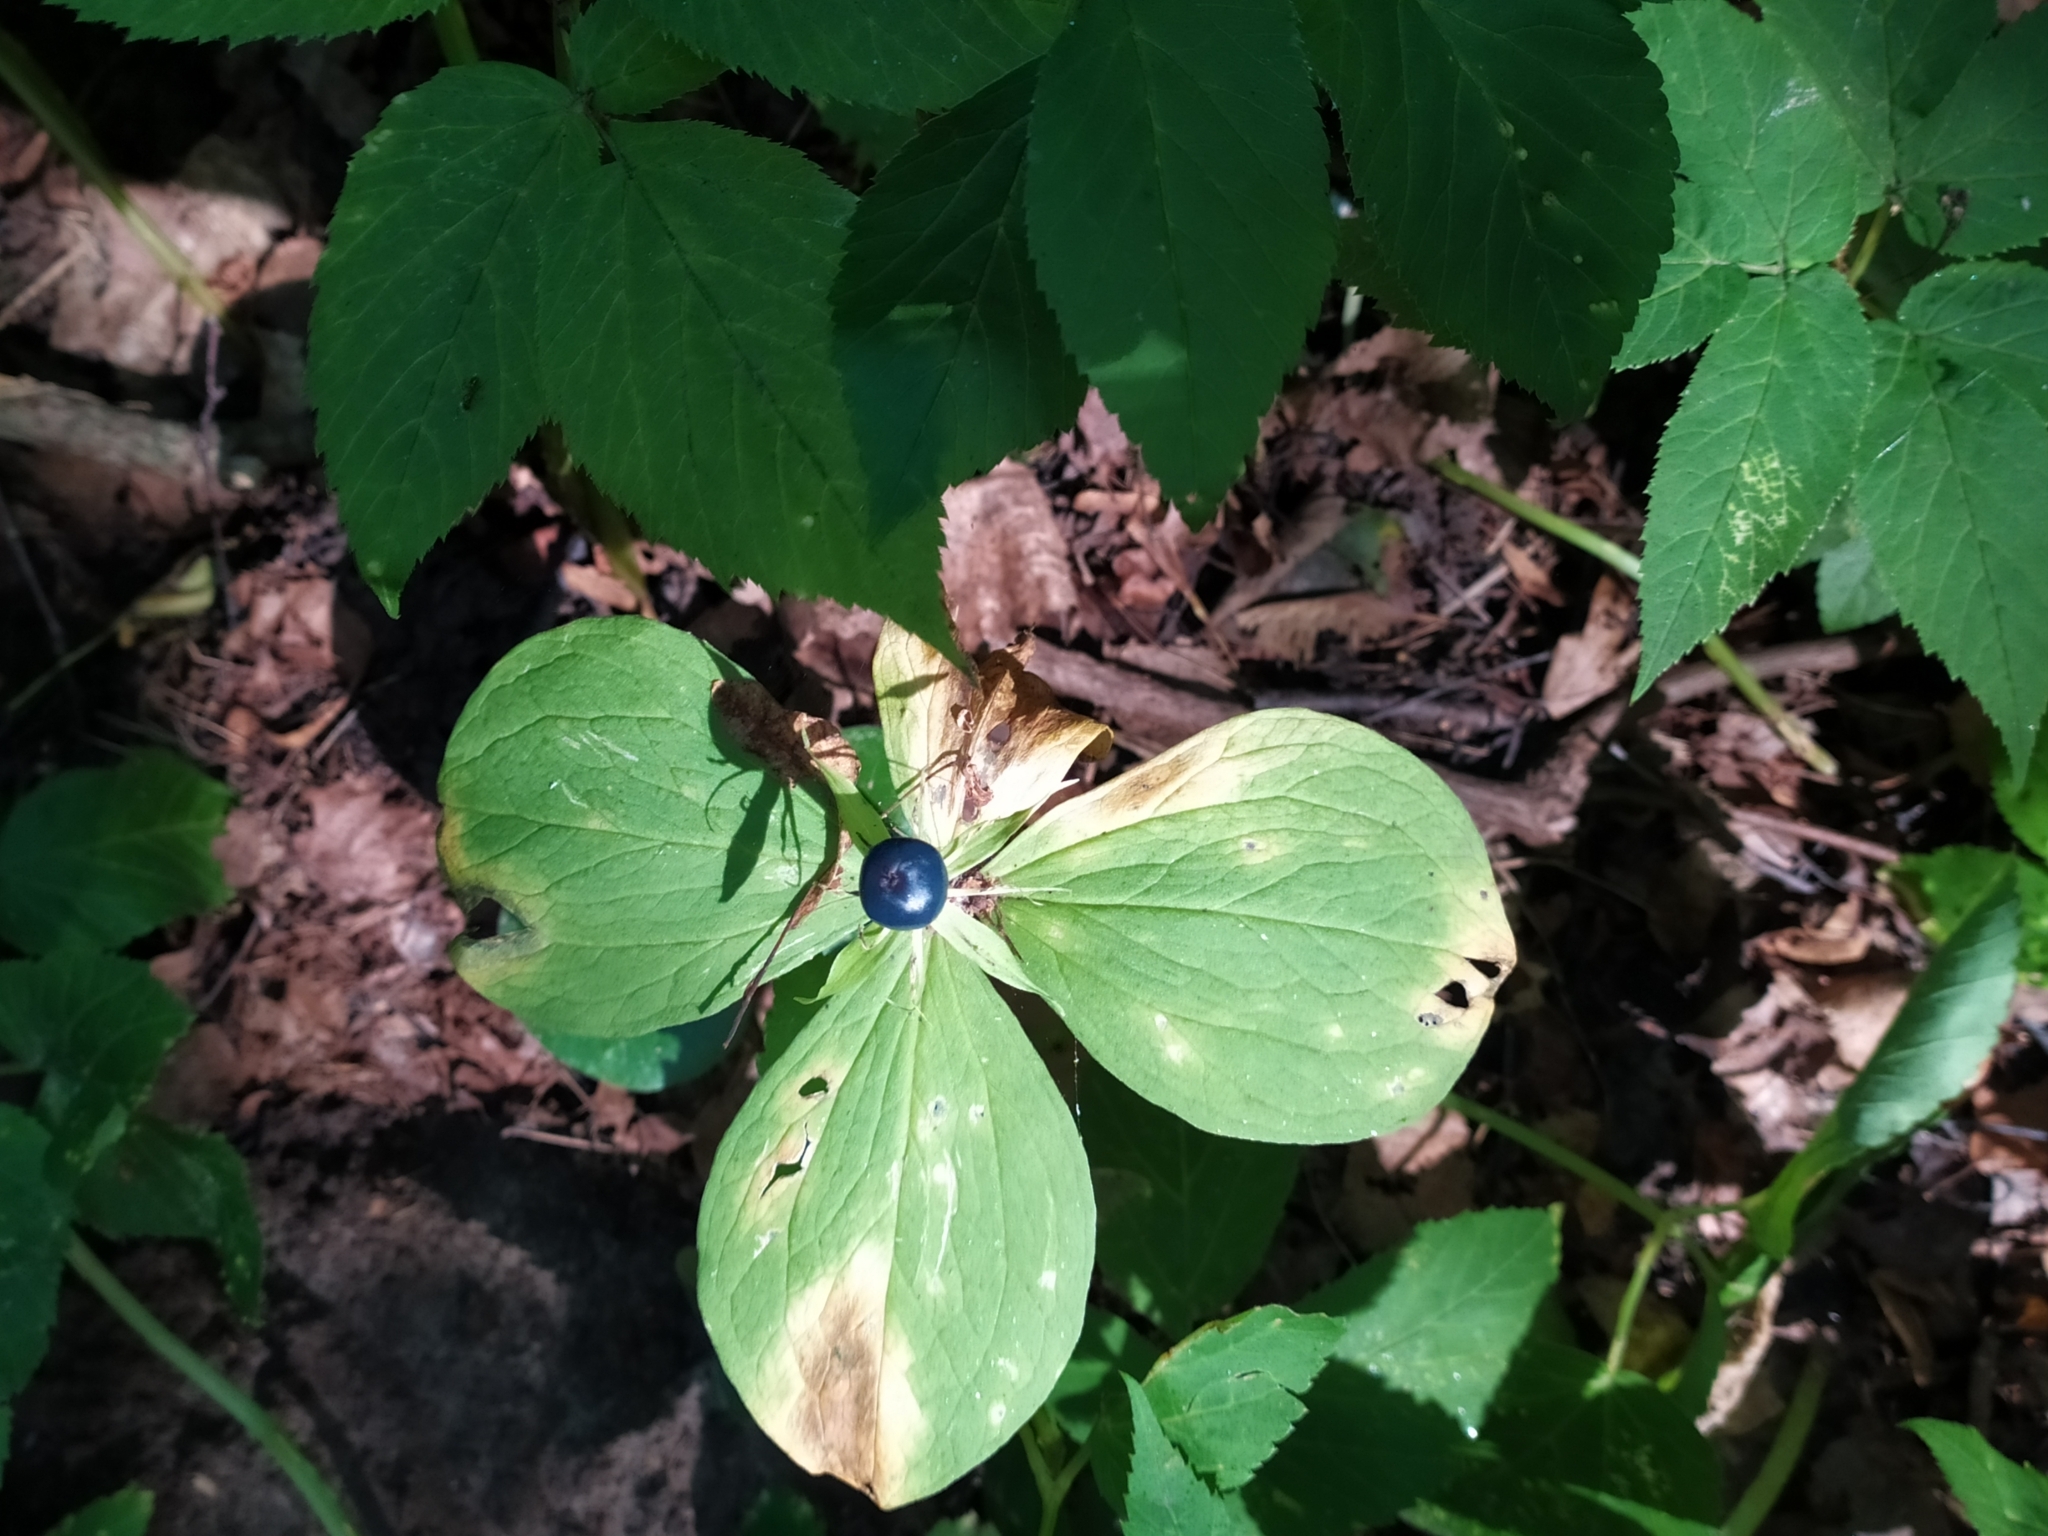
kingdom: Plantae
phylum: Tracheophyta
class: Liliopsida
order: Liliales
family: Melanthiaceae
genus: Paris
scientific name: Paris quadrifolia
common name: Herb-paris
